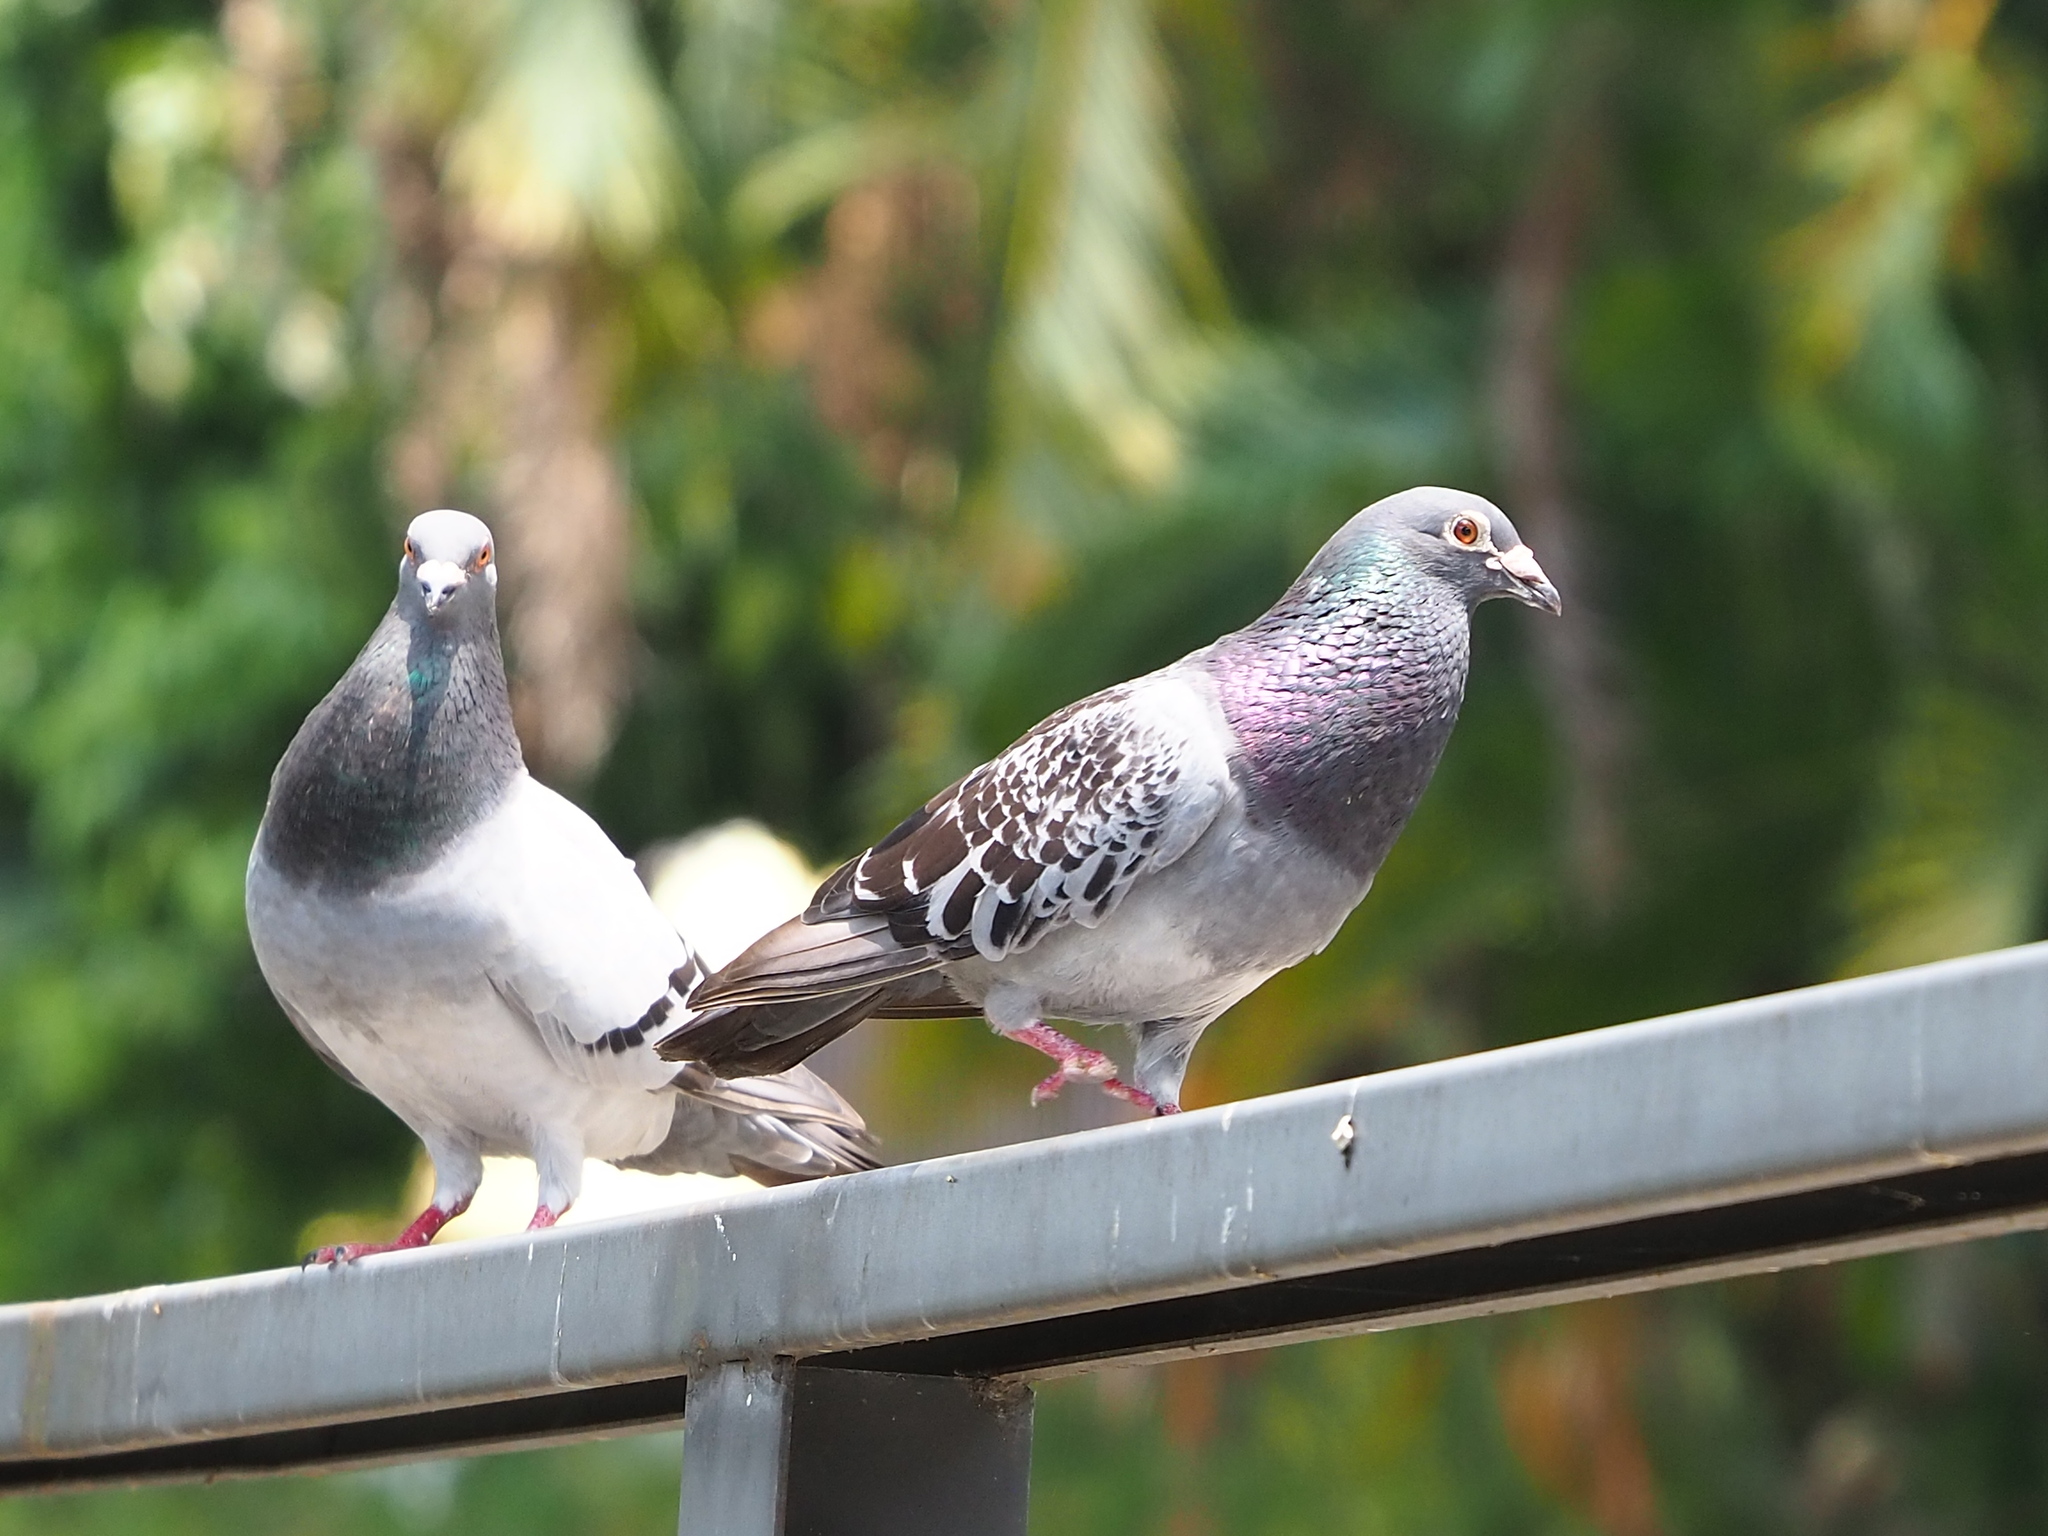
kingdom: Animalia
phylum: Chordata
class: Aves
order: Columbiformes
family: Columbidae
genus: Columba
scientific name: Columba livia
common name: Rock pigeon
